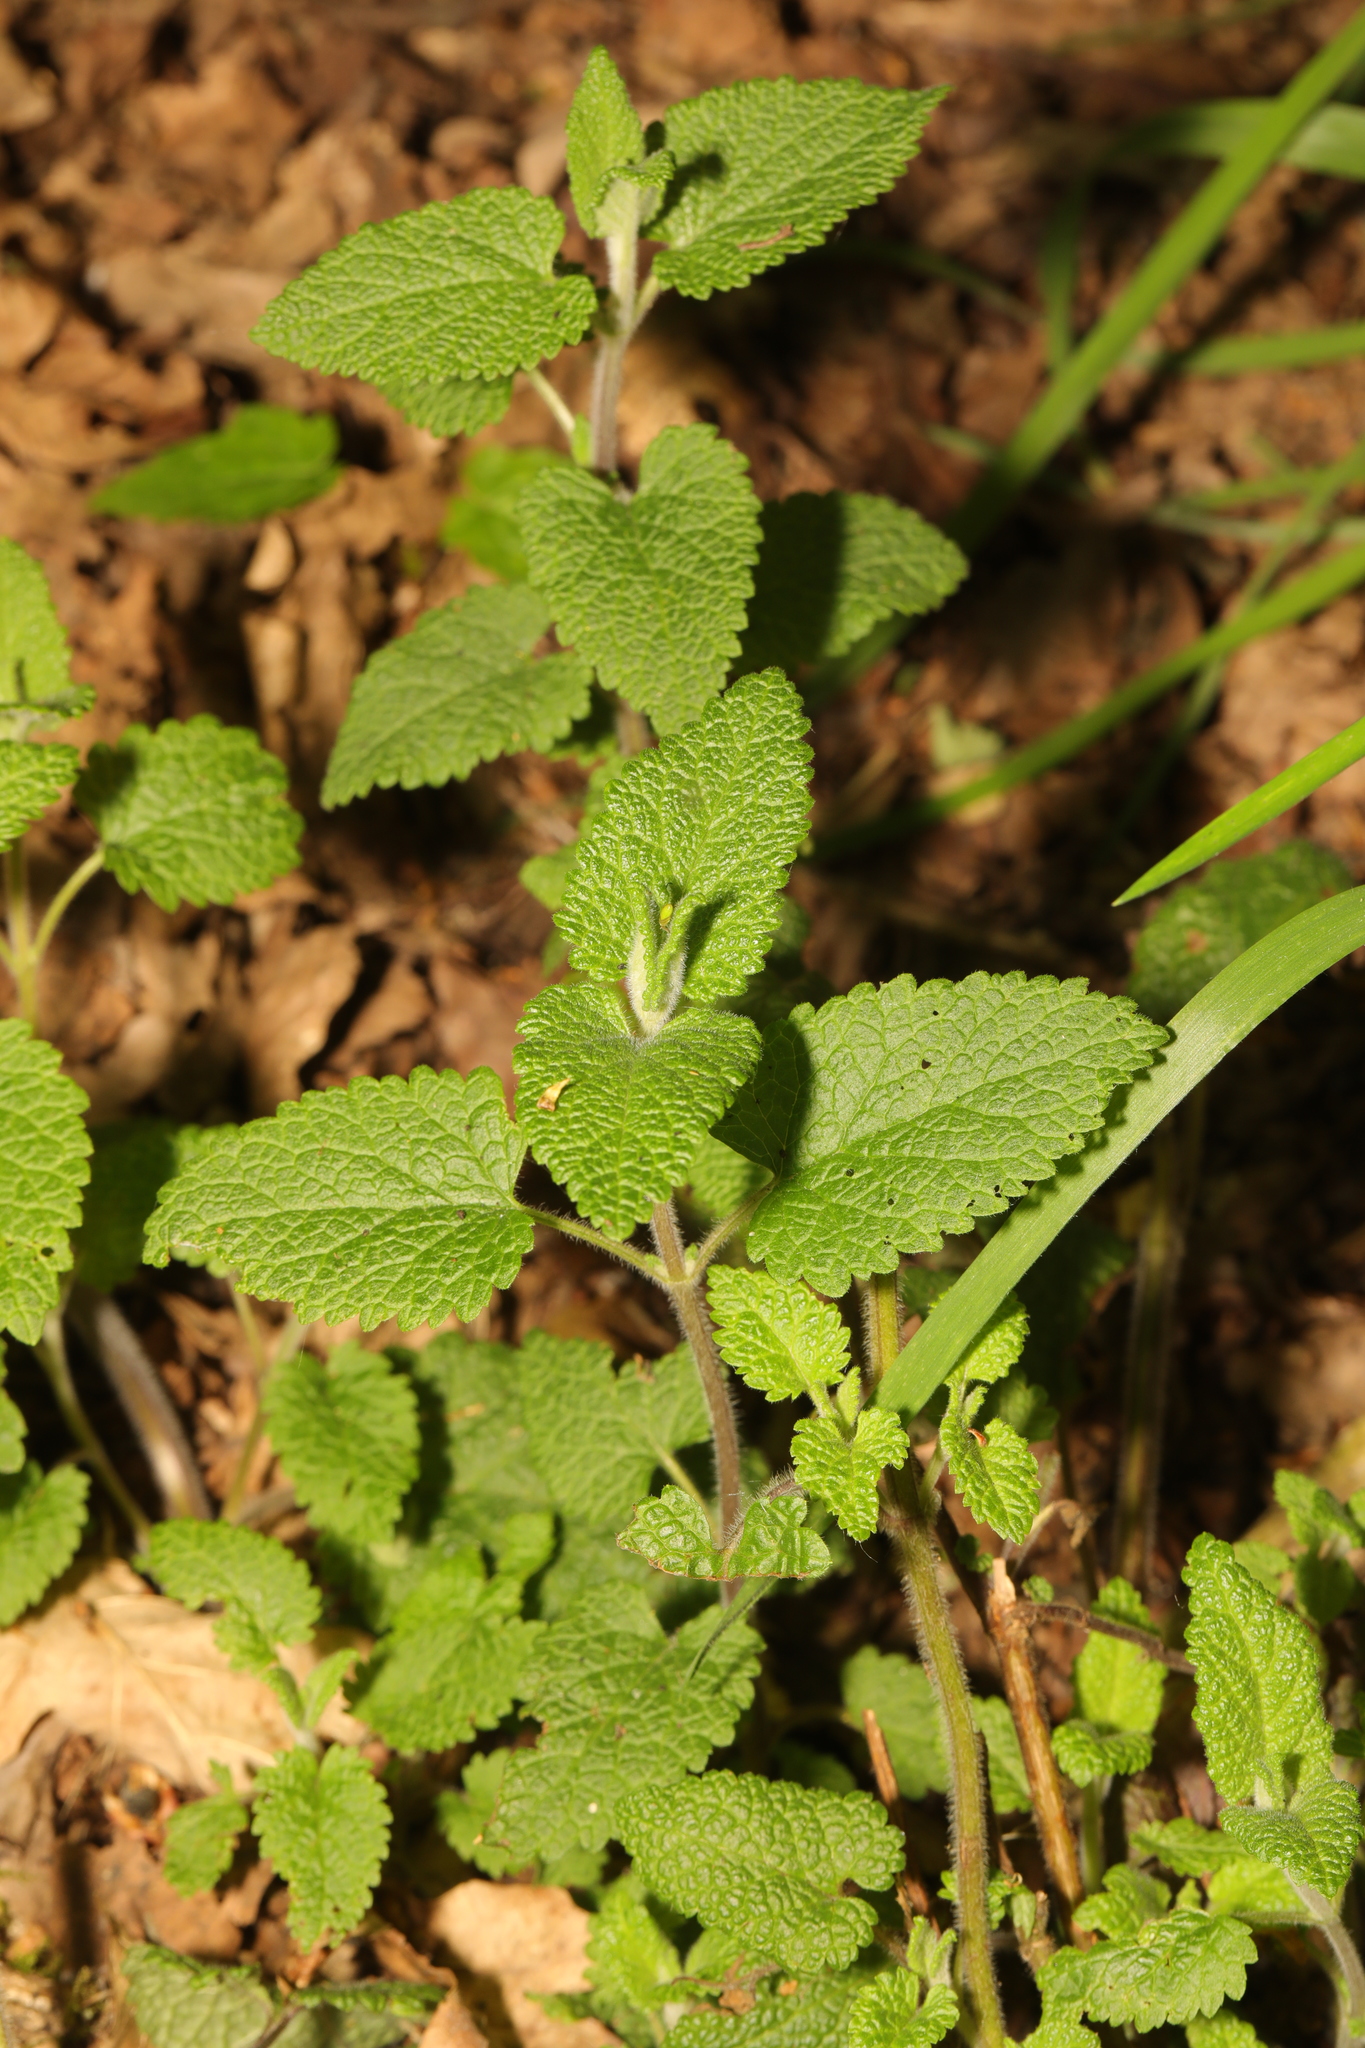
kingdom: Plantae
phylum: Tracheophyta
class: Magnoliopsida
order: Lamiales
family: Lamiaceae
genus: Teucrium
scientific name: Teucrium scorodonia
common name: Woodland germander
